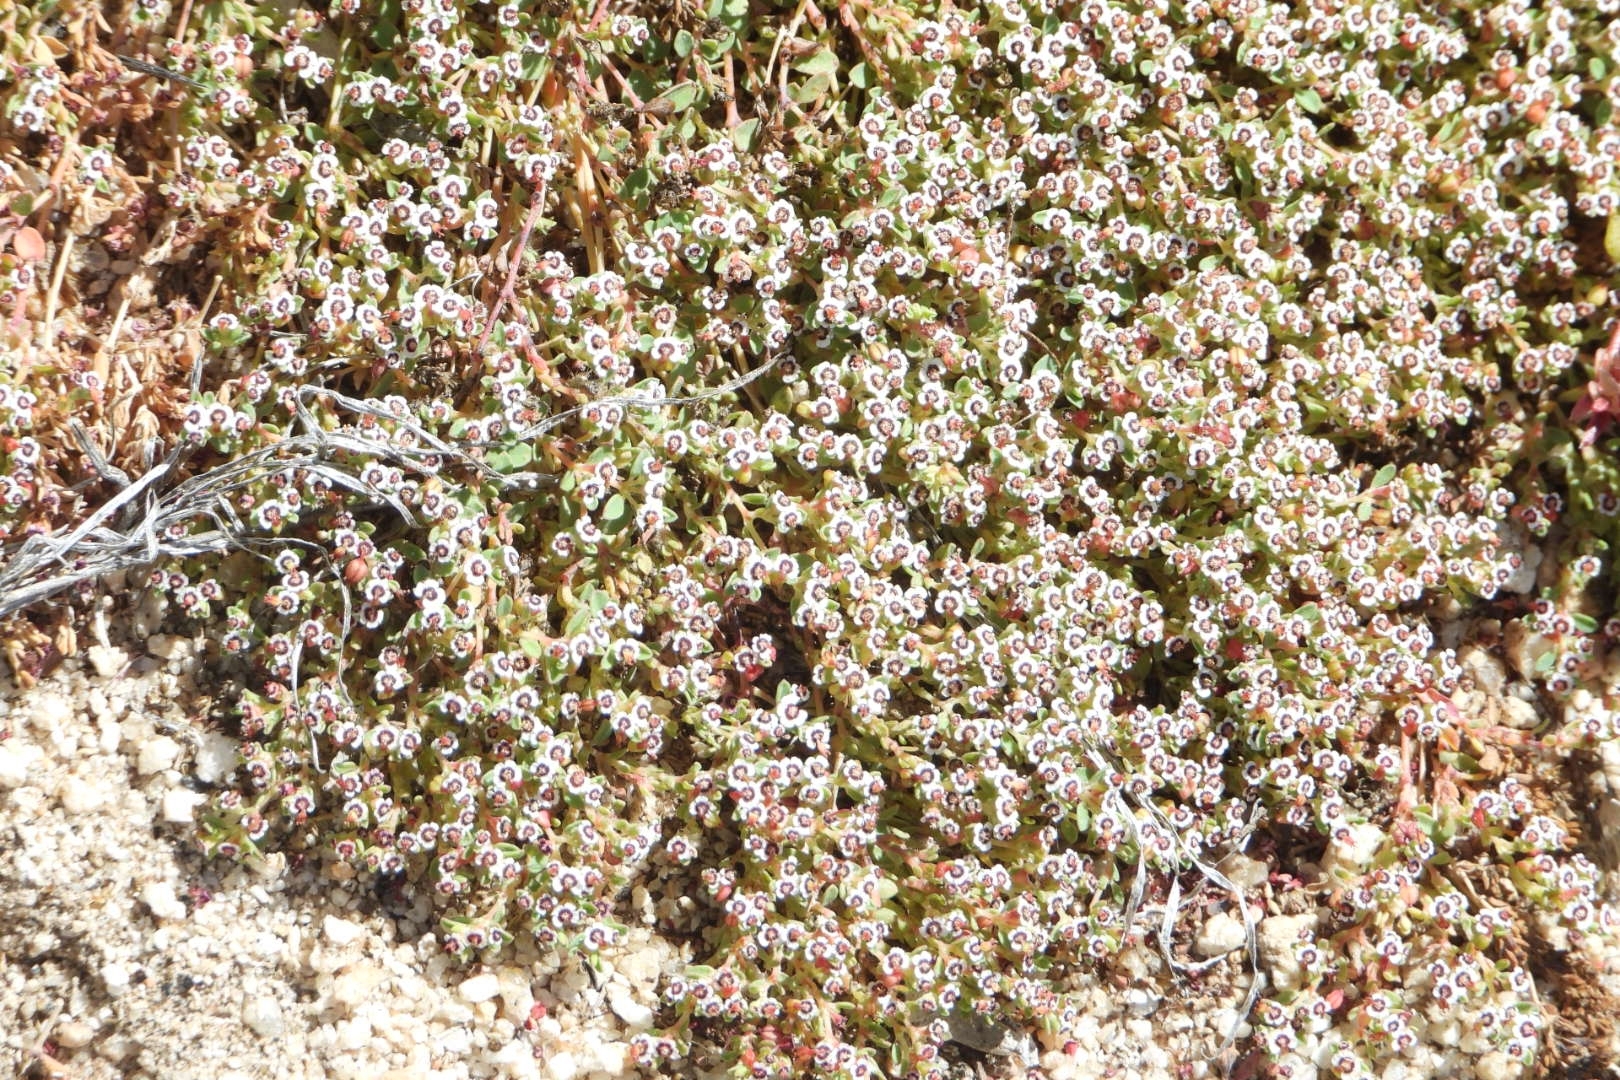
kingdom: Plantae
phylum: Tracheophyta
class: Magnoliopsida
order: Malpighiales
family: Euphorbiaceae
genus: Euphorbia
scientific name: Euphorbia polycarpa
